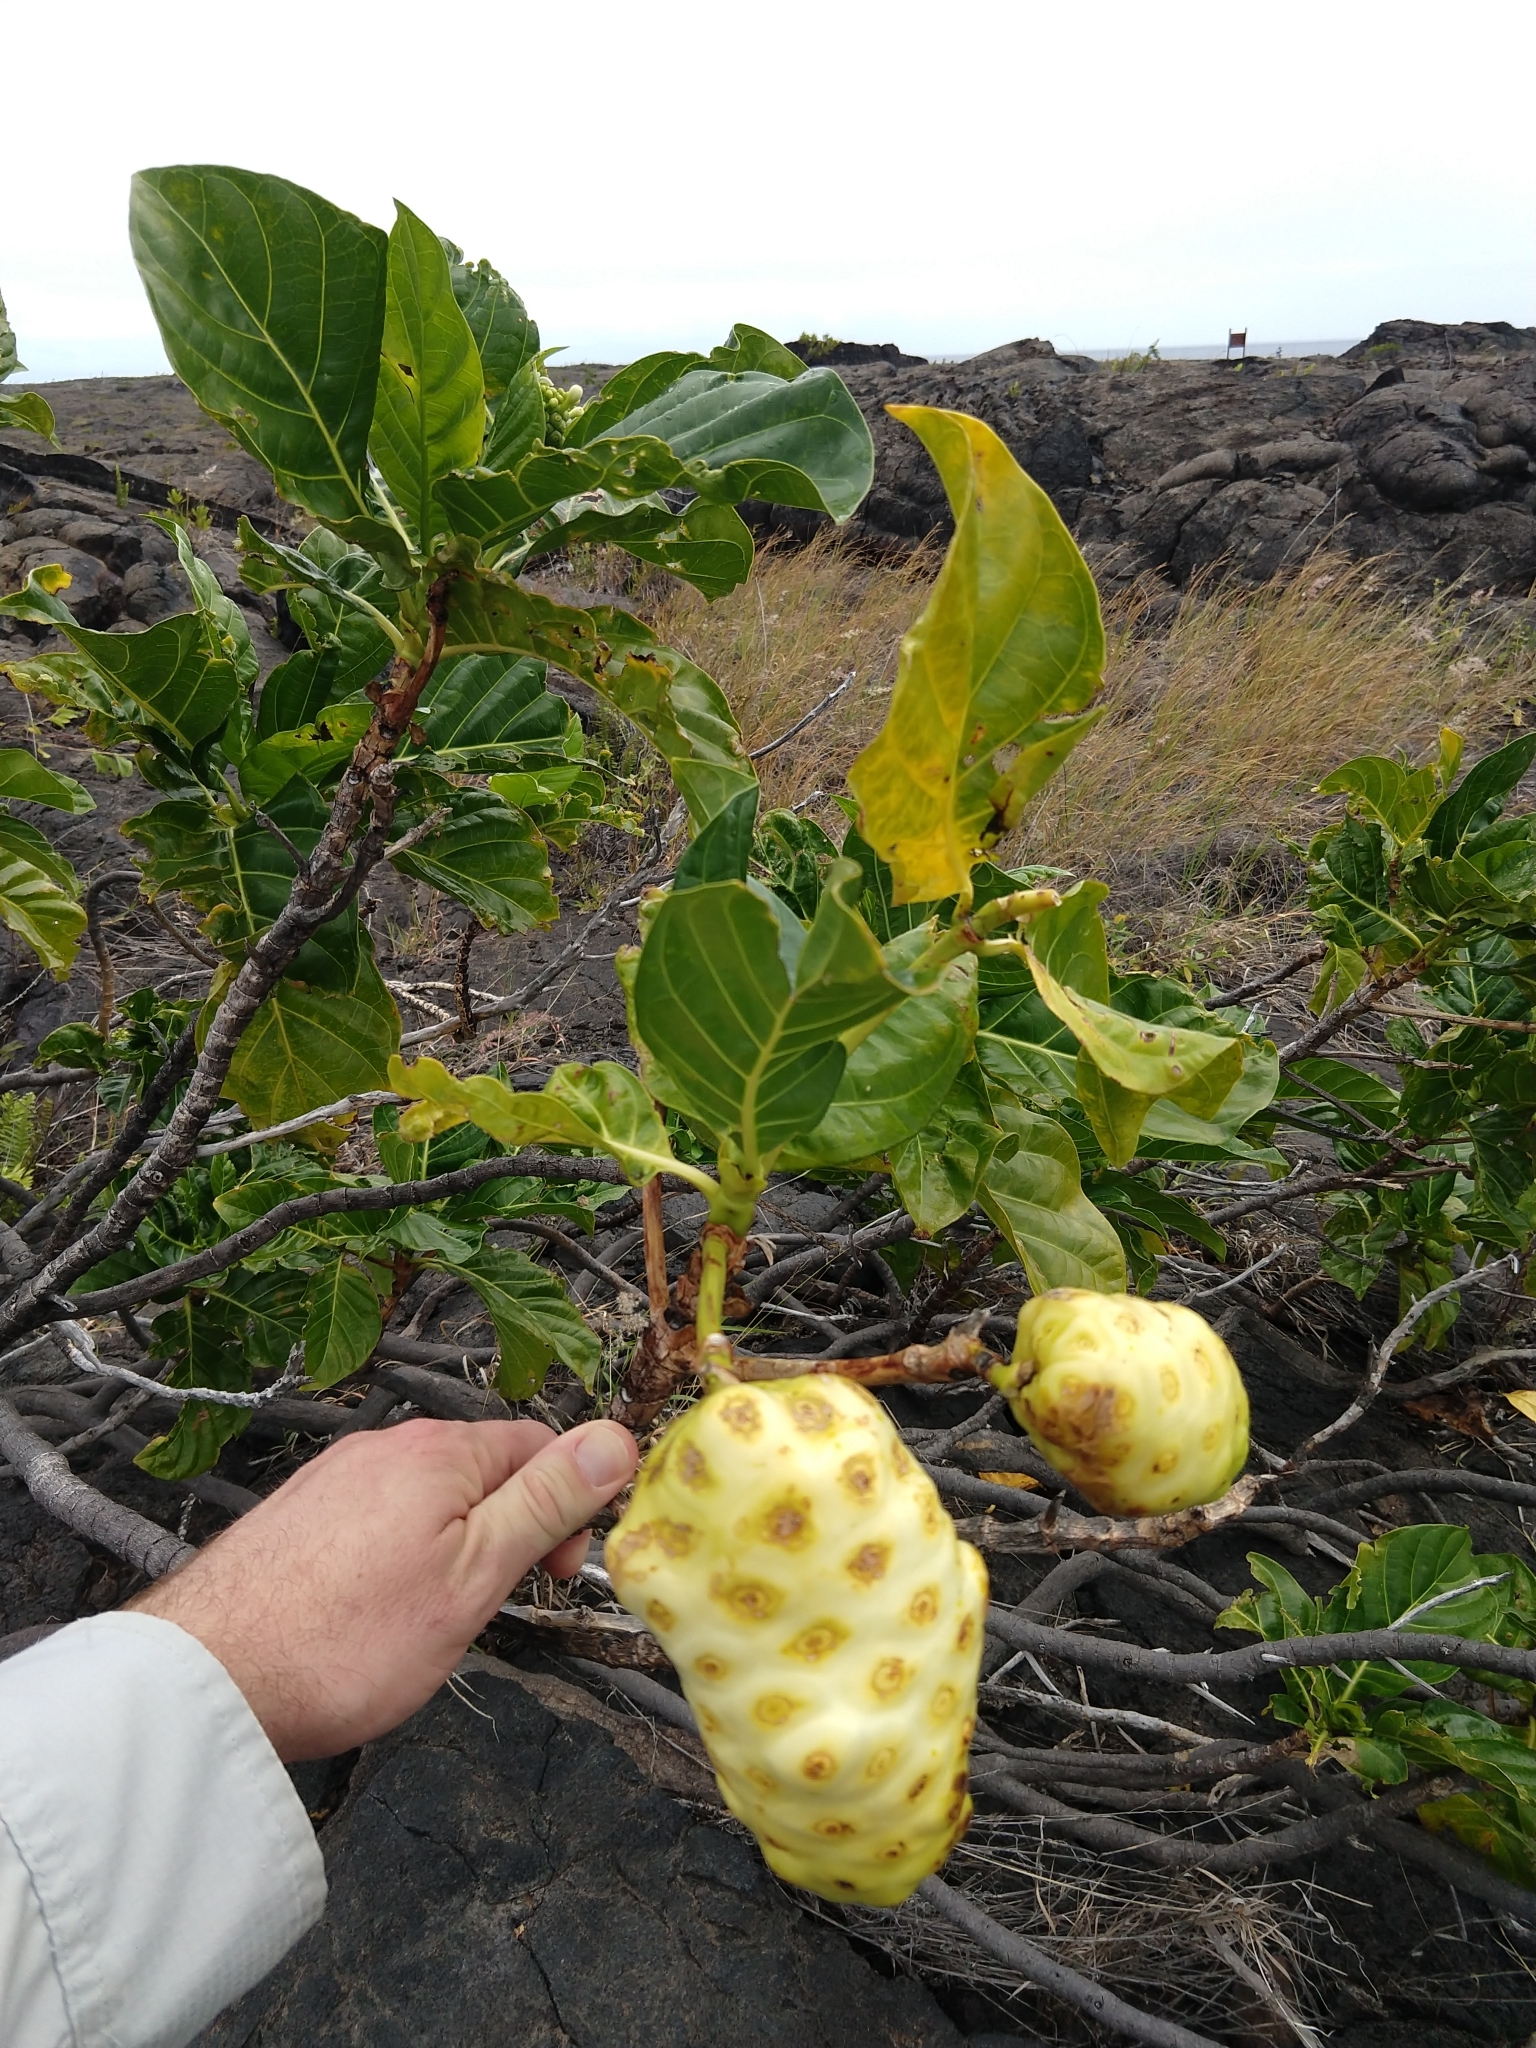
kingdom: Plantae
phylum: Tracheophyta
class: Magnoliopsida
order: Gentianales
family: Rubiaceae
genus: Morinda
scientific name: Morinda citrifolia
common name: Indian-mulberry
